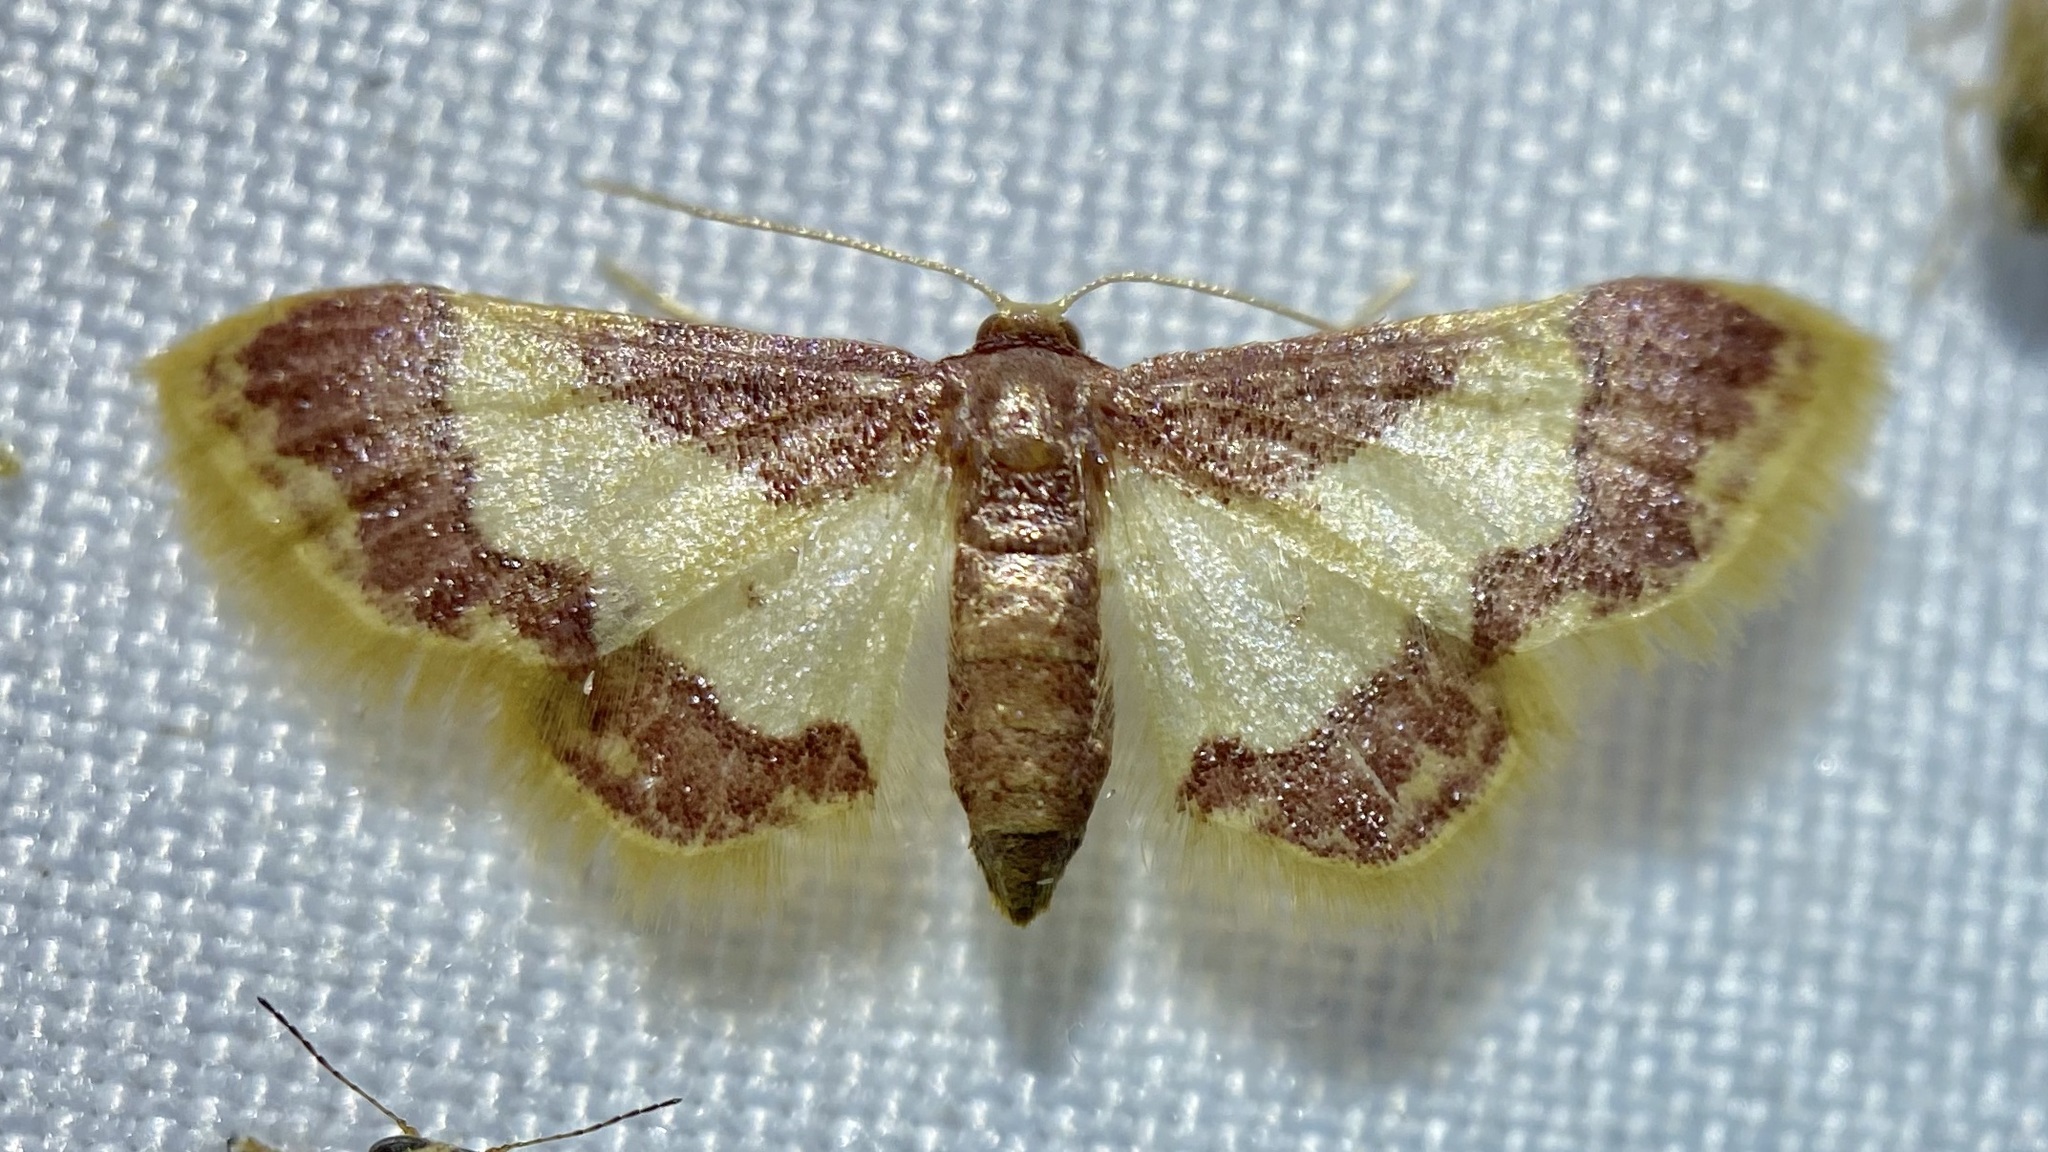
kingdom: Animalia
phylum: Arthropoda
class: Insecta
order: Lepidoptera
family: Geometridae
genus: Idaea
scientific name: Idaea basinta
